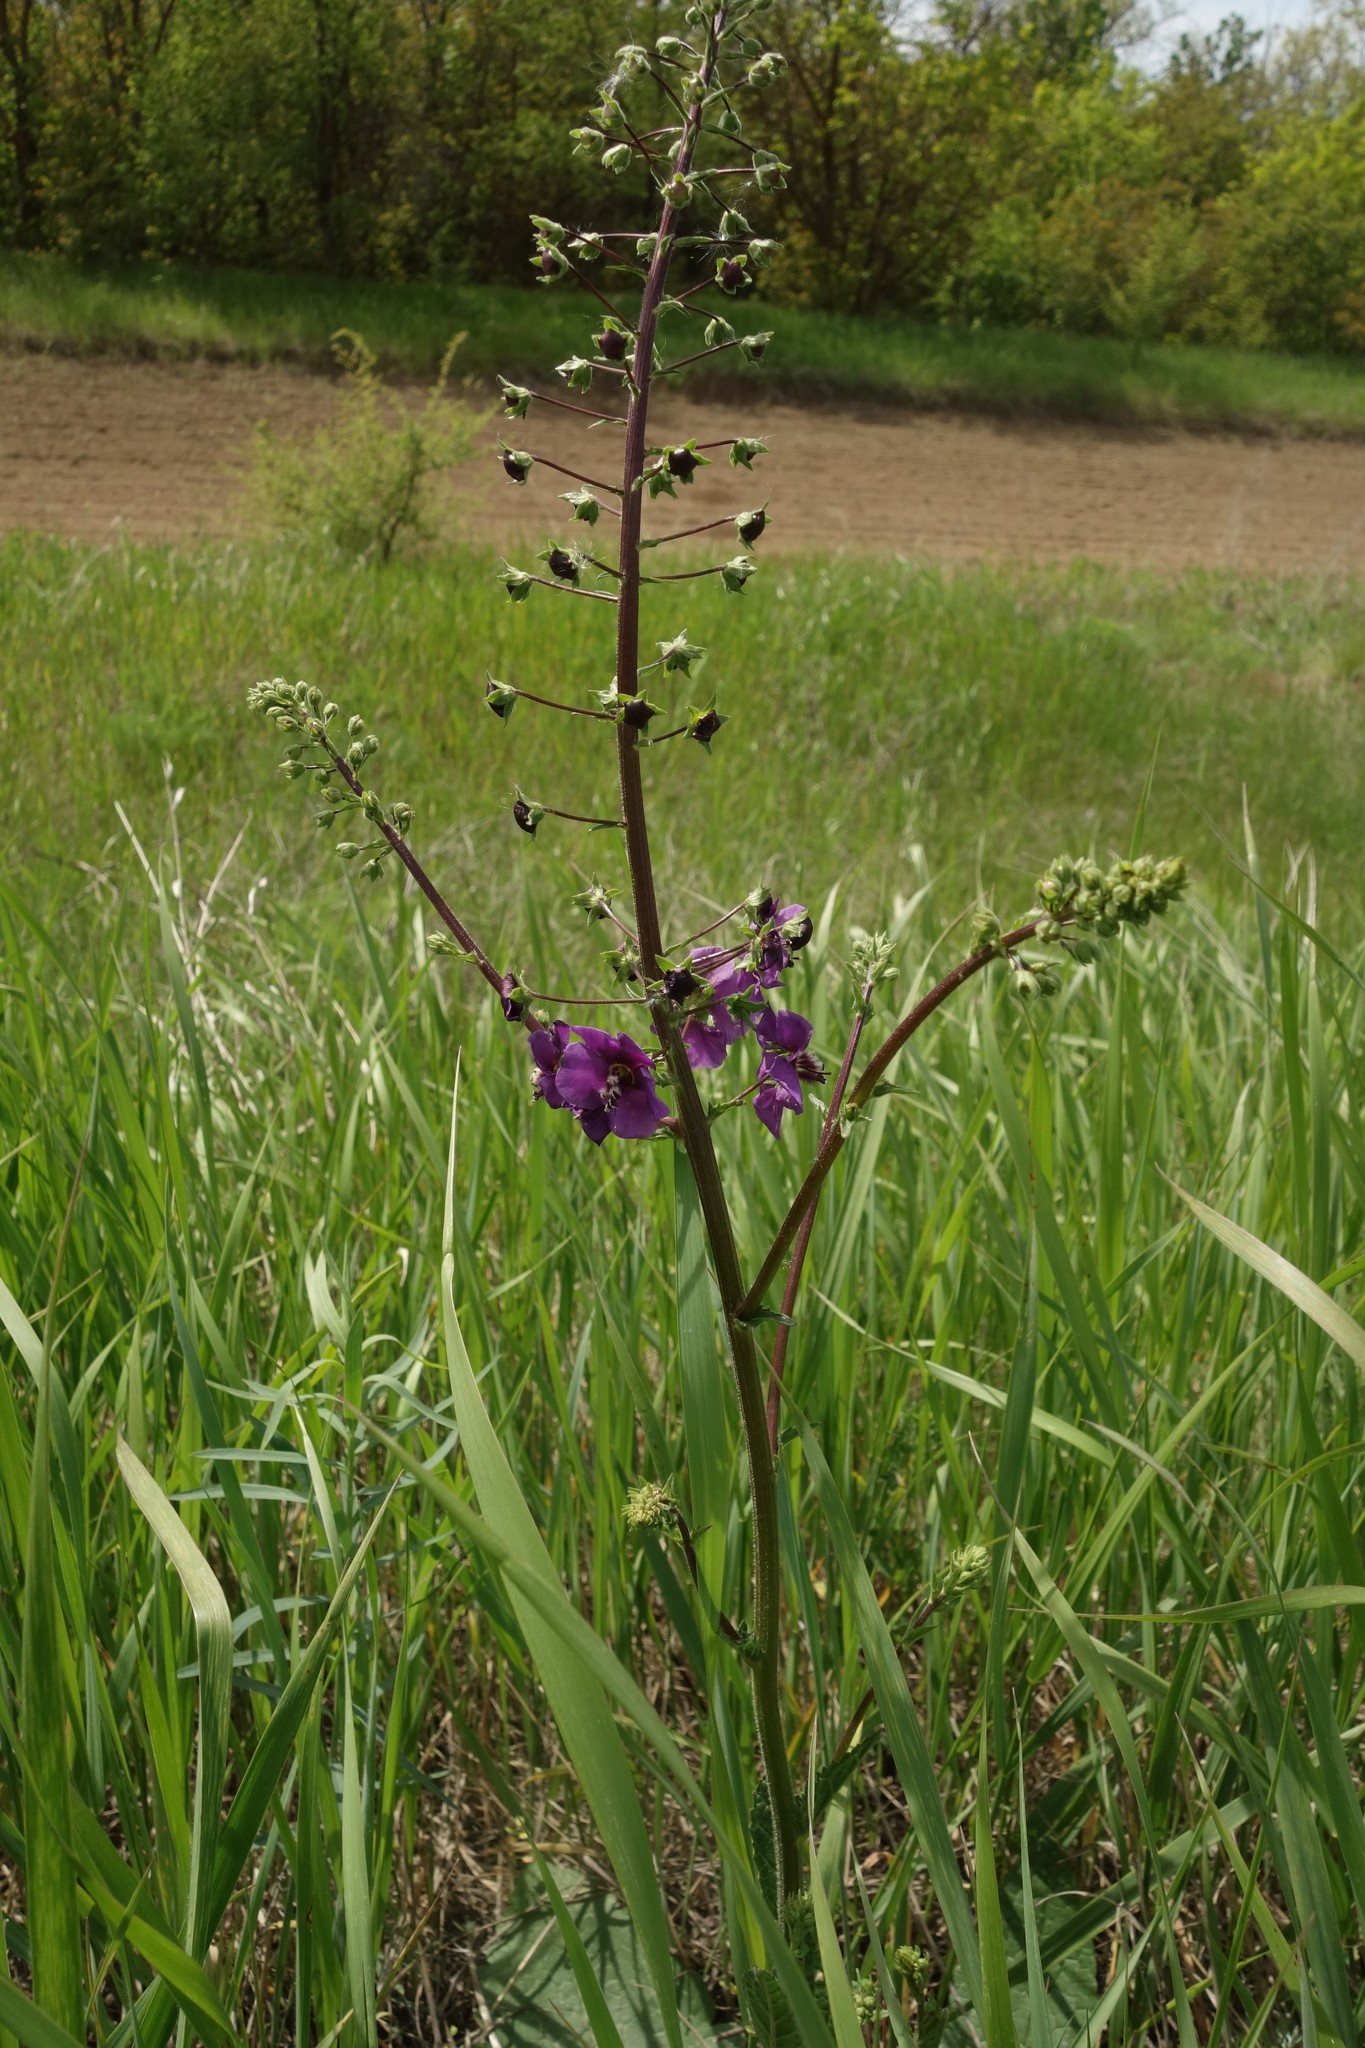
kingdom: Plantae
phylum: Tracheophyta
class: Magnoliopsida
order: Lamiales
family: Scrophulariaceae
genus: Verbascum
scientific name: Verbascum phoeniceum
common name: Purple mullein
